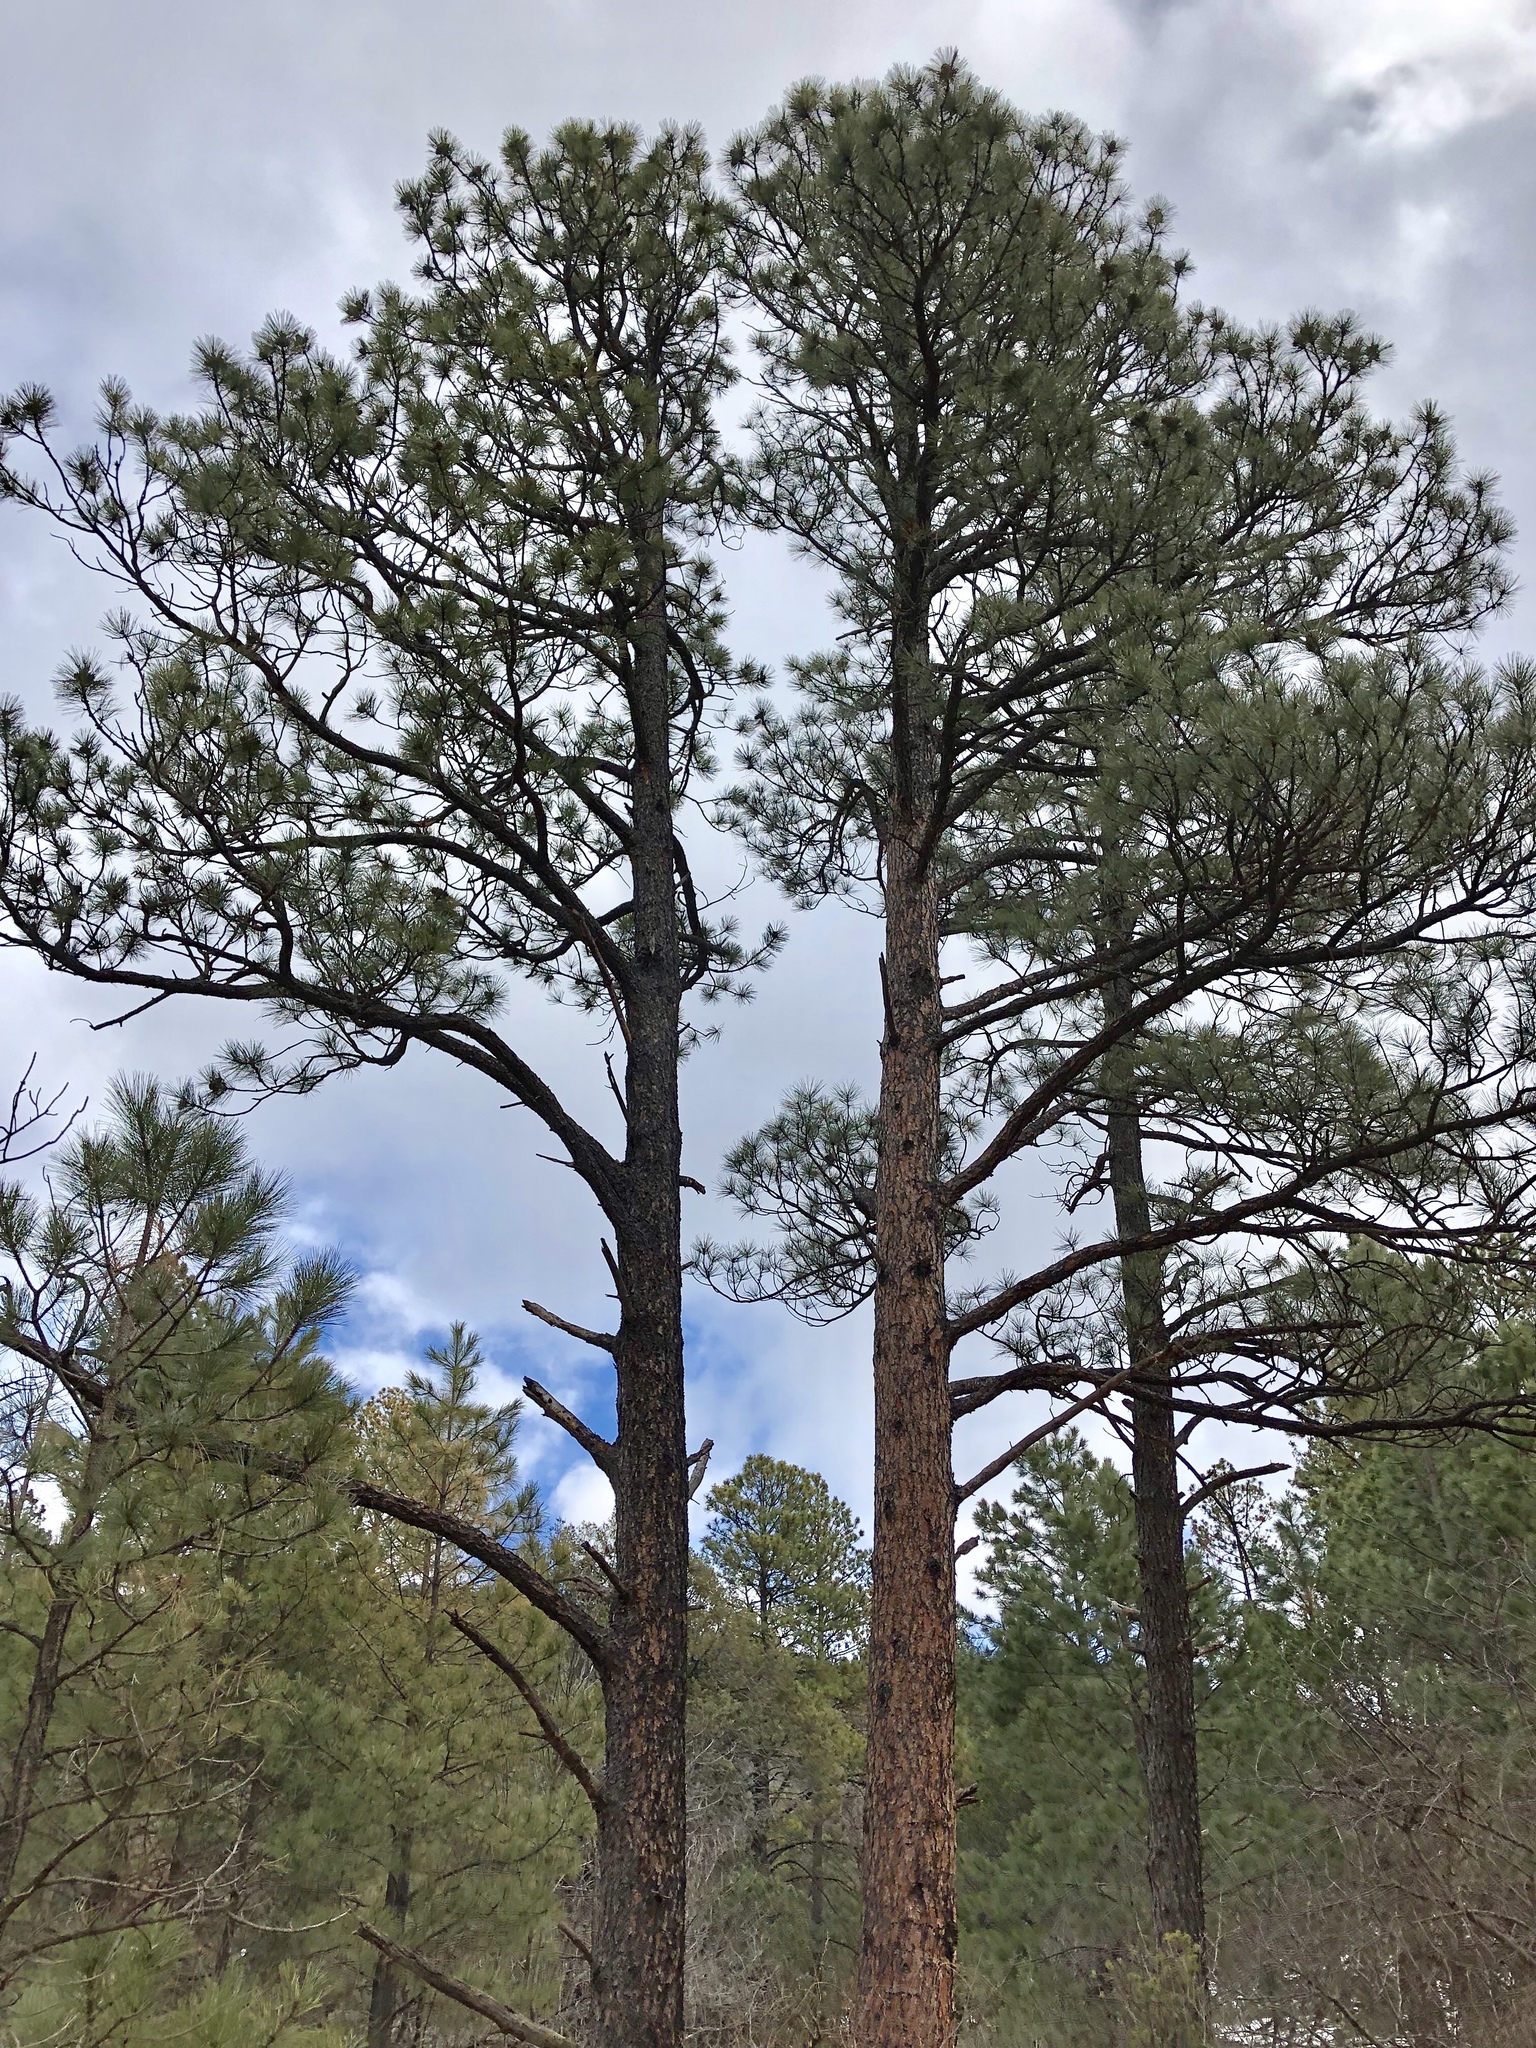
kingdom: Plantae
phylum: Tracheophyta
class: Pinopsida
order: Pinales
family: Pinaceae
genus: Pinus
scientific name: Pinus ponderosa
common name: Western yellow-pine
